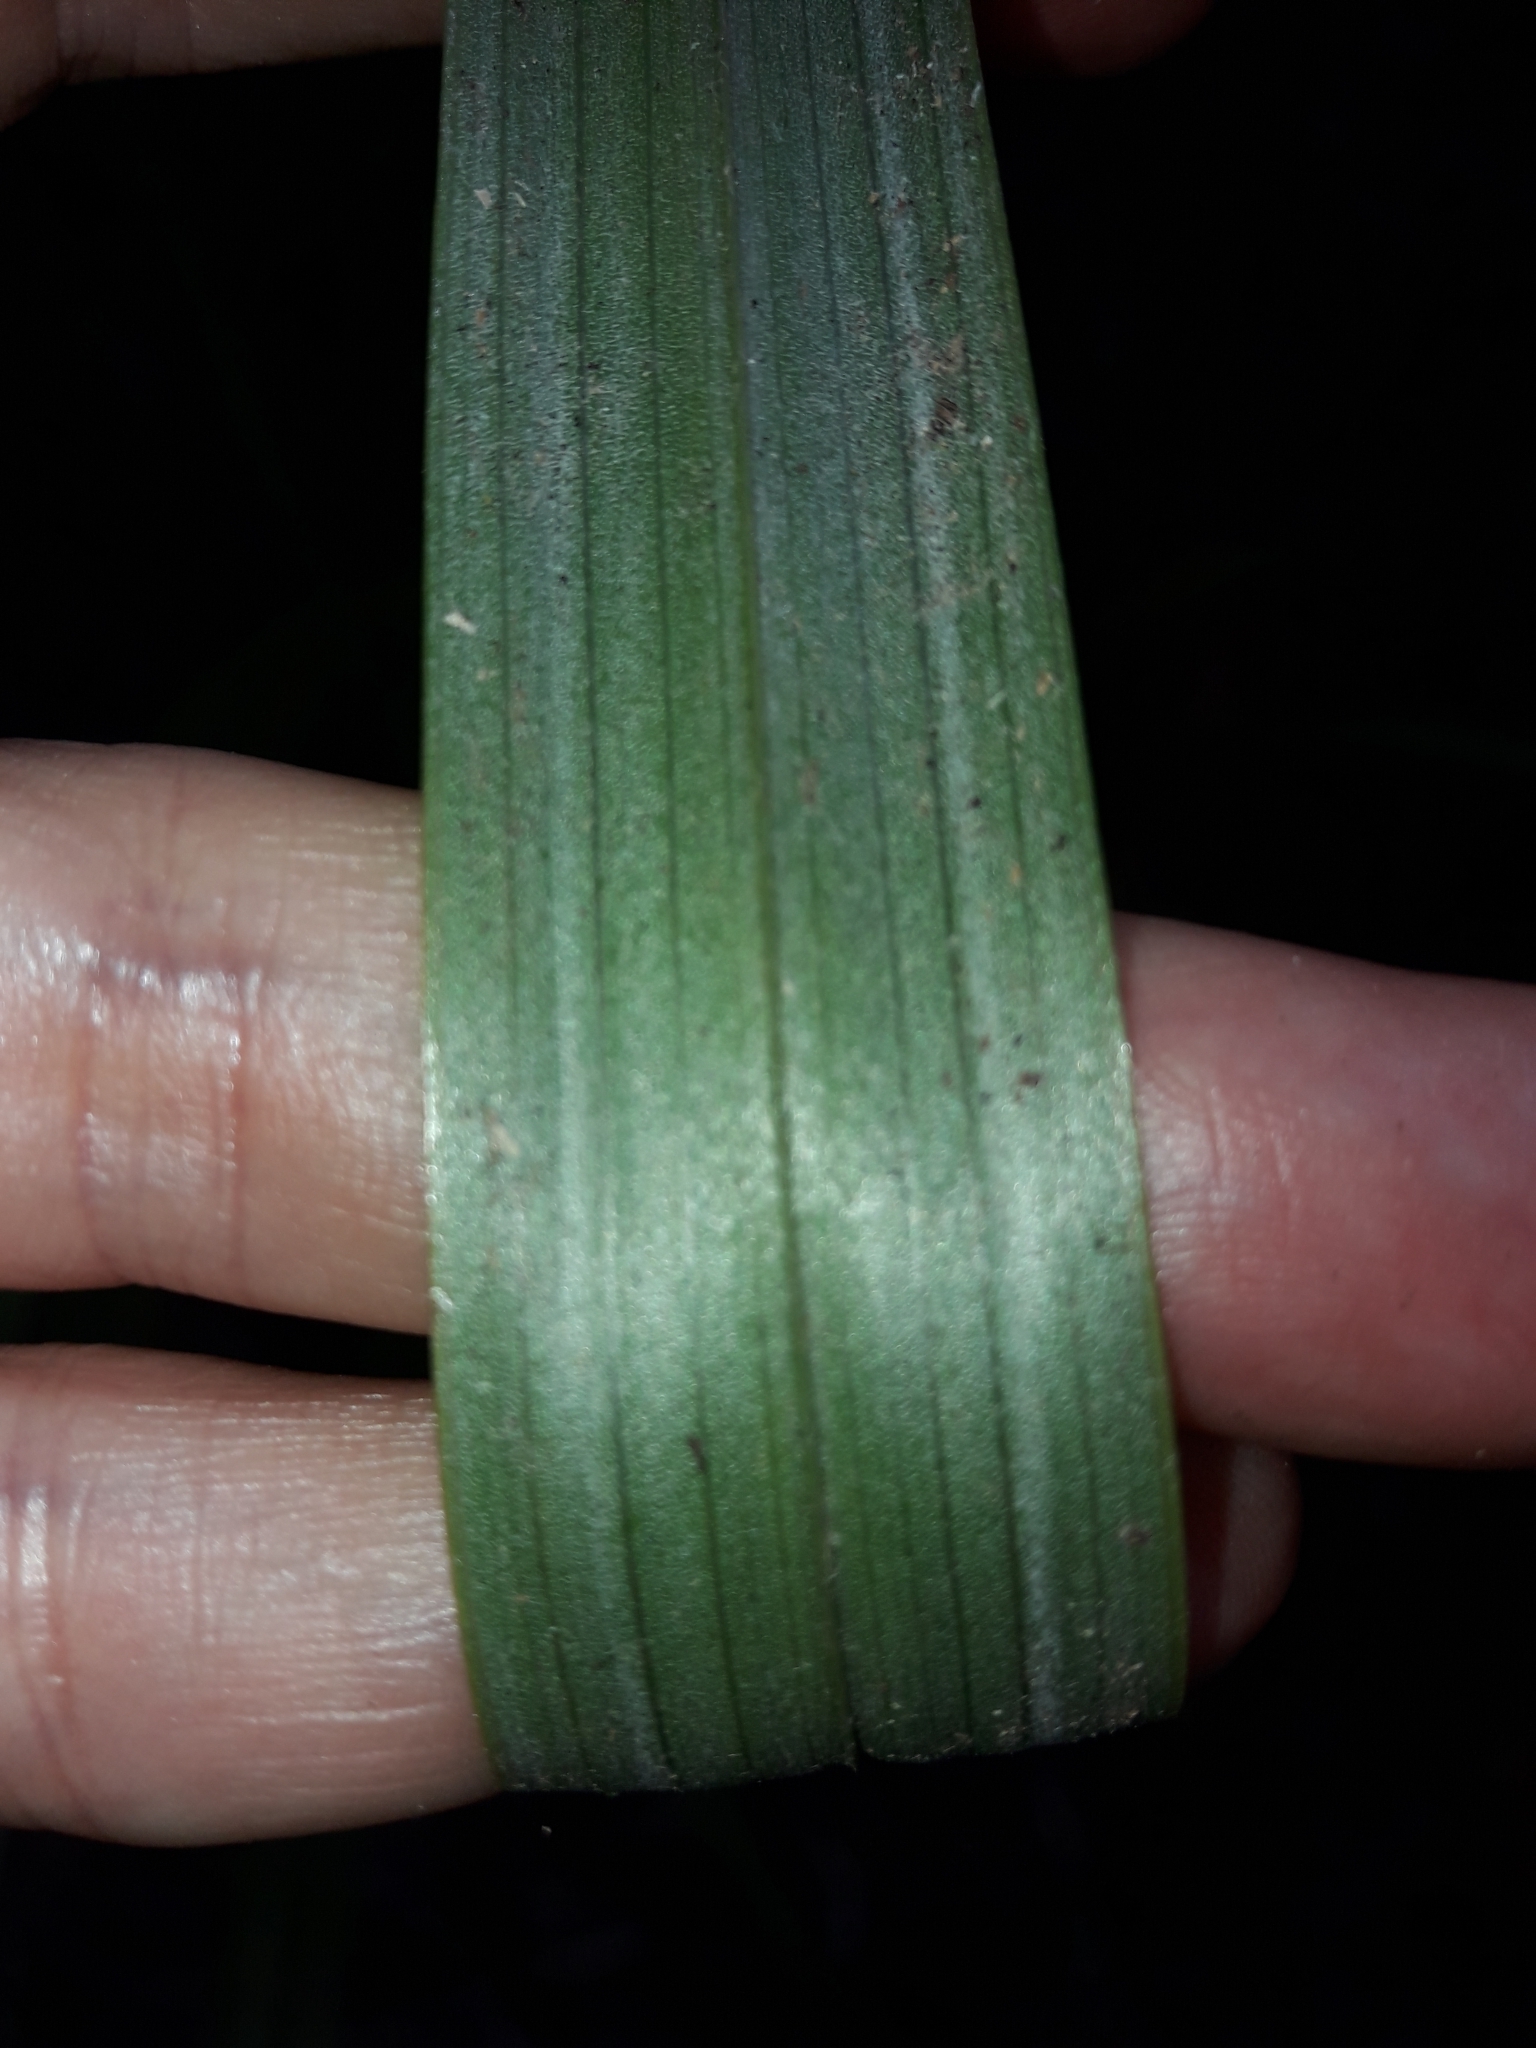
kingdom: Plantae
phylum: Tracheophyta
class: Liliopsida
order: Asparagales
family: Asteliaceae
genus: Astelia
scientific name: Astelia trinervia
